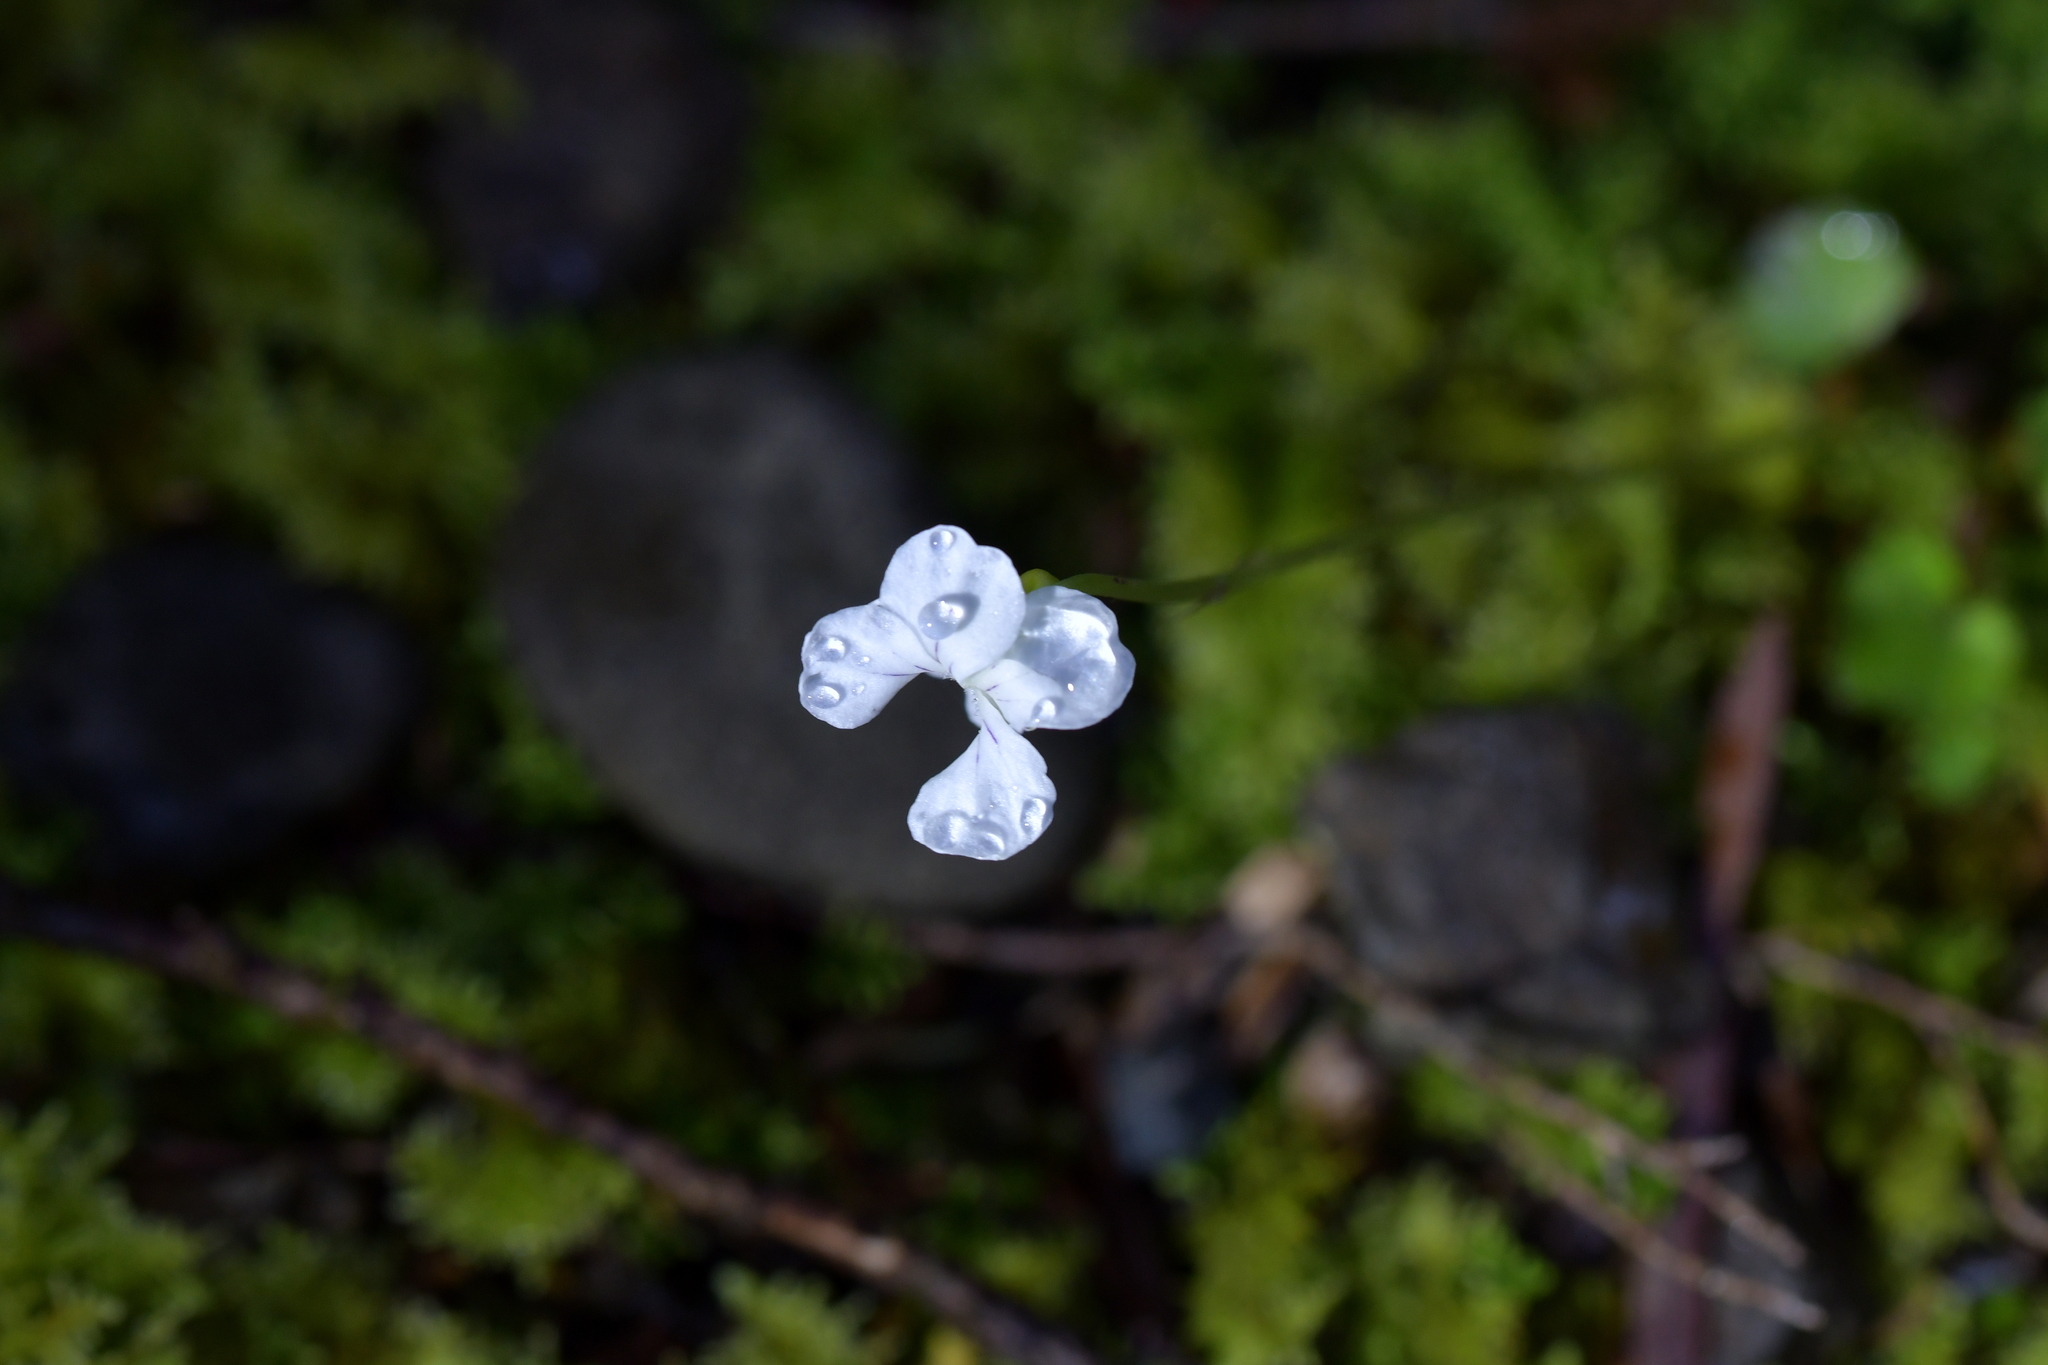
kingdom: Plantae
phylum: Tracheophyta
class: Magnoliopsida
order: Malpighiales
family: Violaceae
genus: Viola
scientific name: Viola filicaulis
